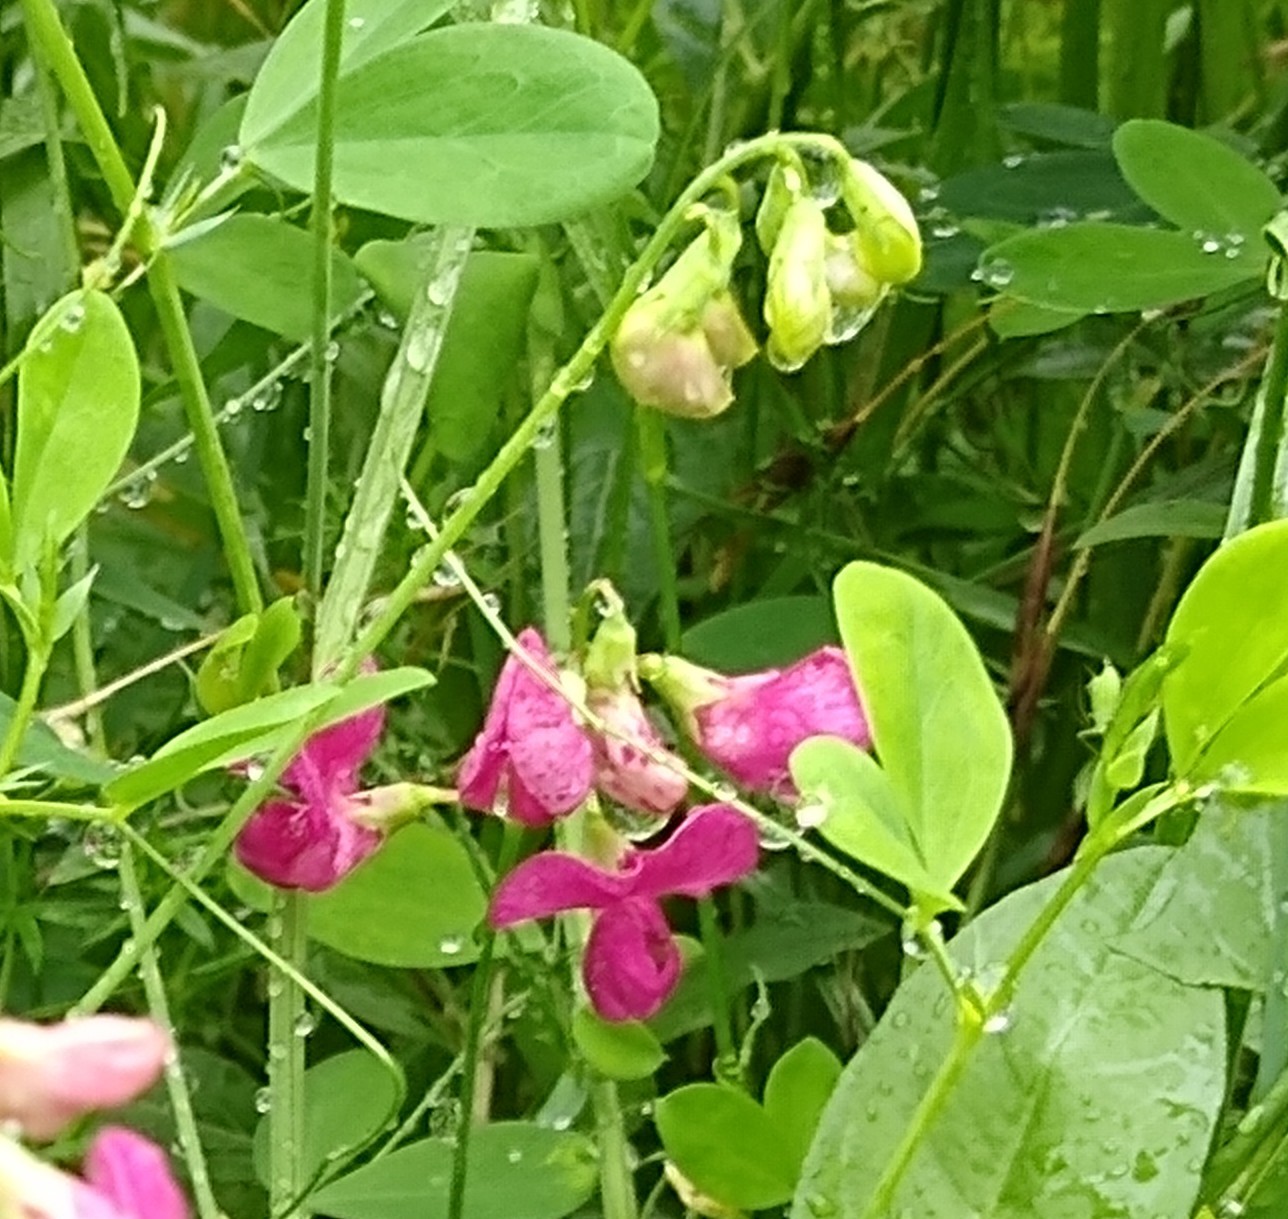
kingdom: Plantae
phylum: Tracheophyta
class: Magnoliopsida
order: Fabales
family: Fabaceae
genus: Lathyrus
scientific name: Lathyrus tuberosus
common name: Tuberous pea
